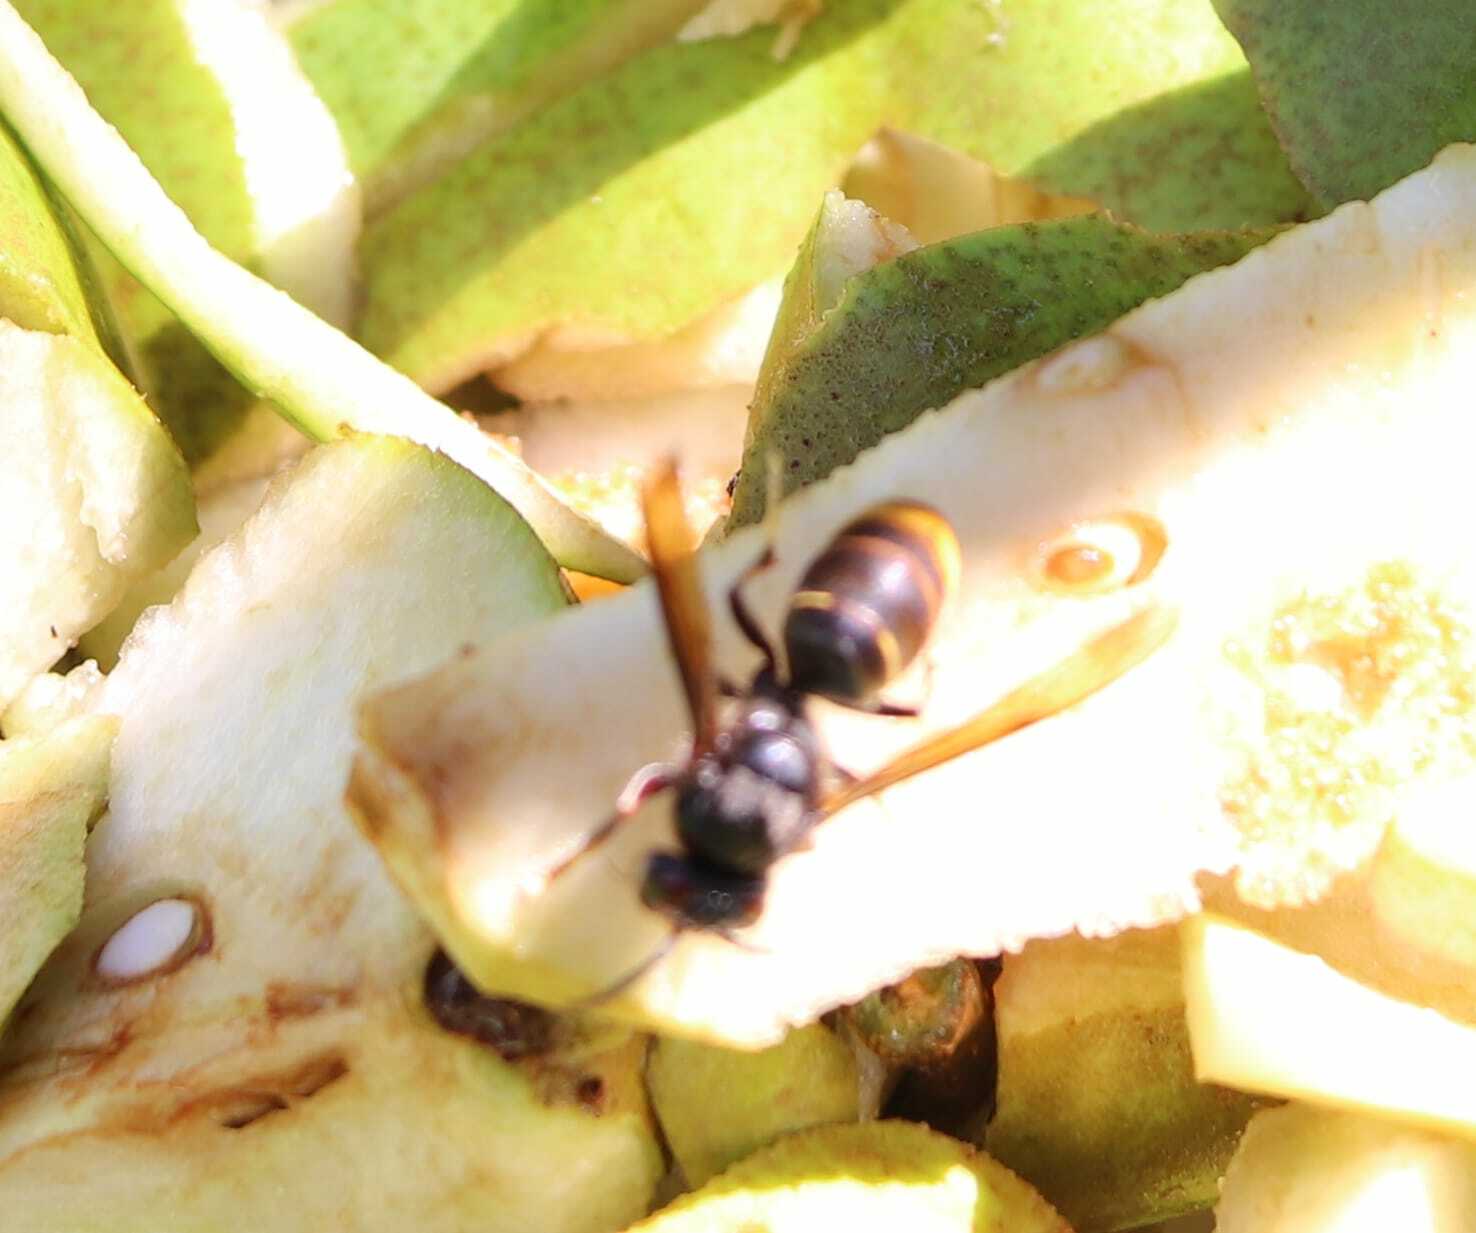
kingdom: Animalia
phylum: Arthropoda
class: Insecta
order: Hymenoptera
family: Vespidae
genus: Vespa
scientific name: Vespa velutina
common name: Asian hornet
